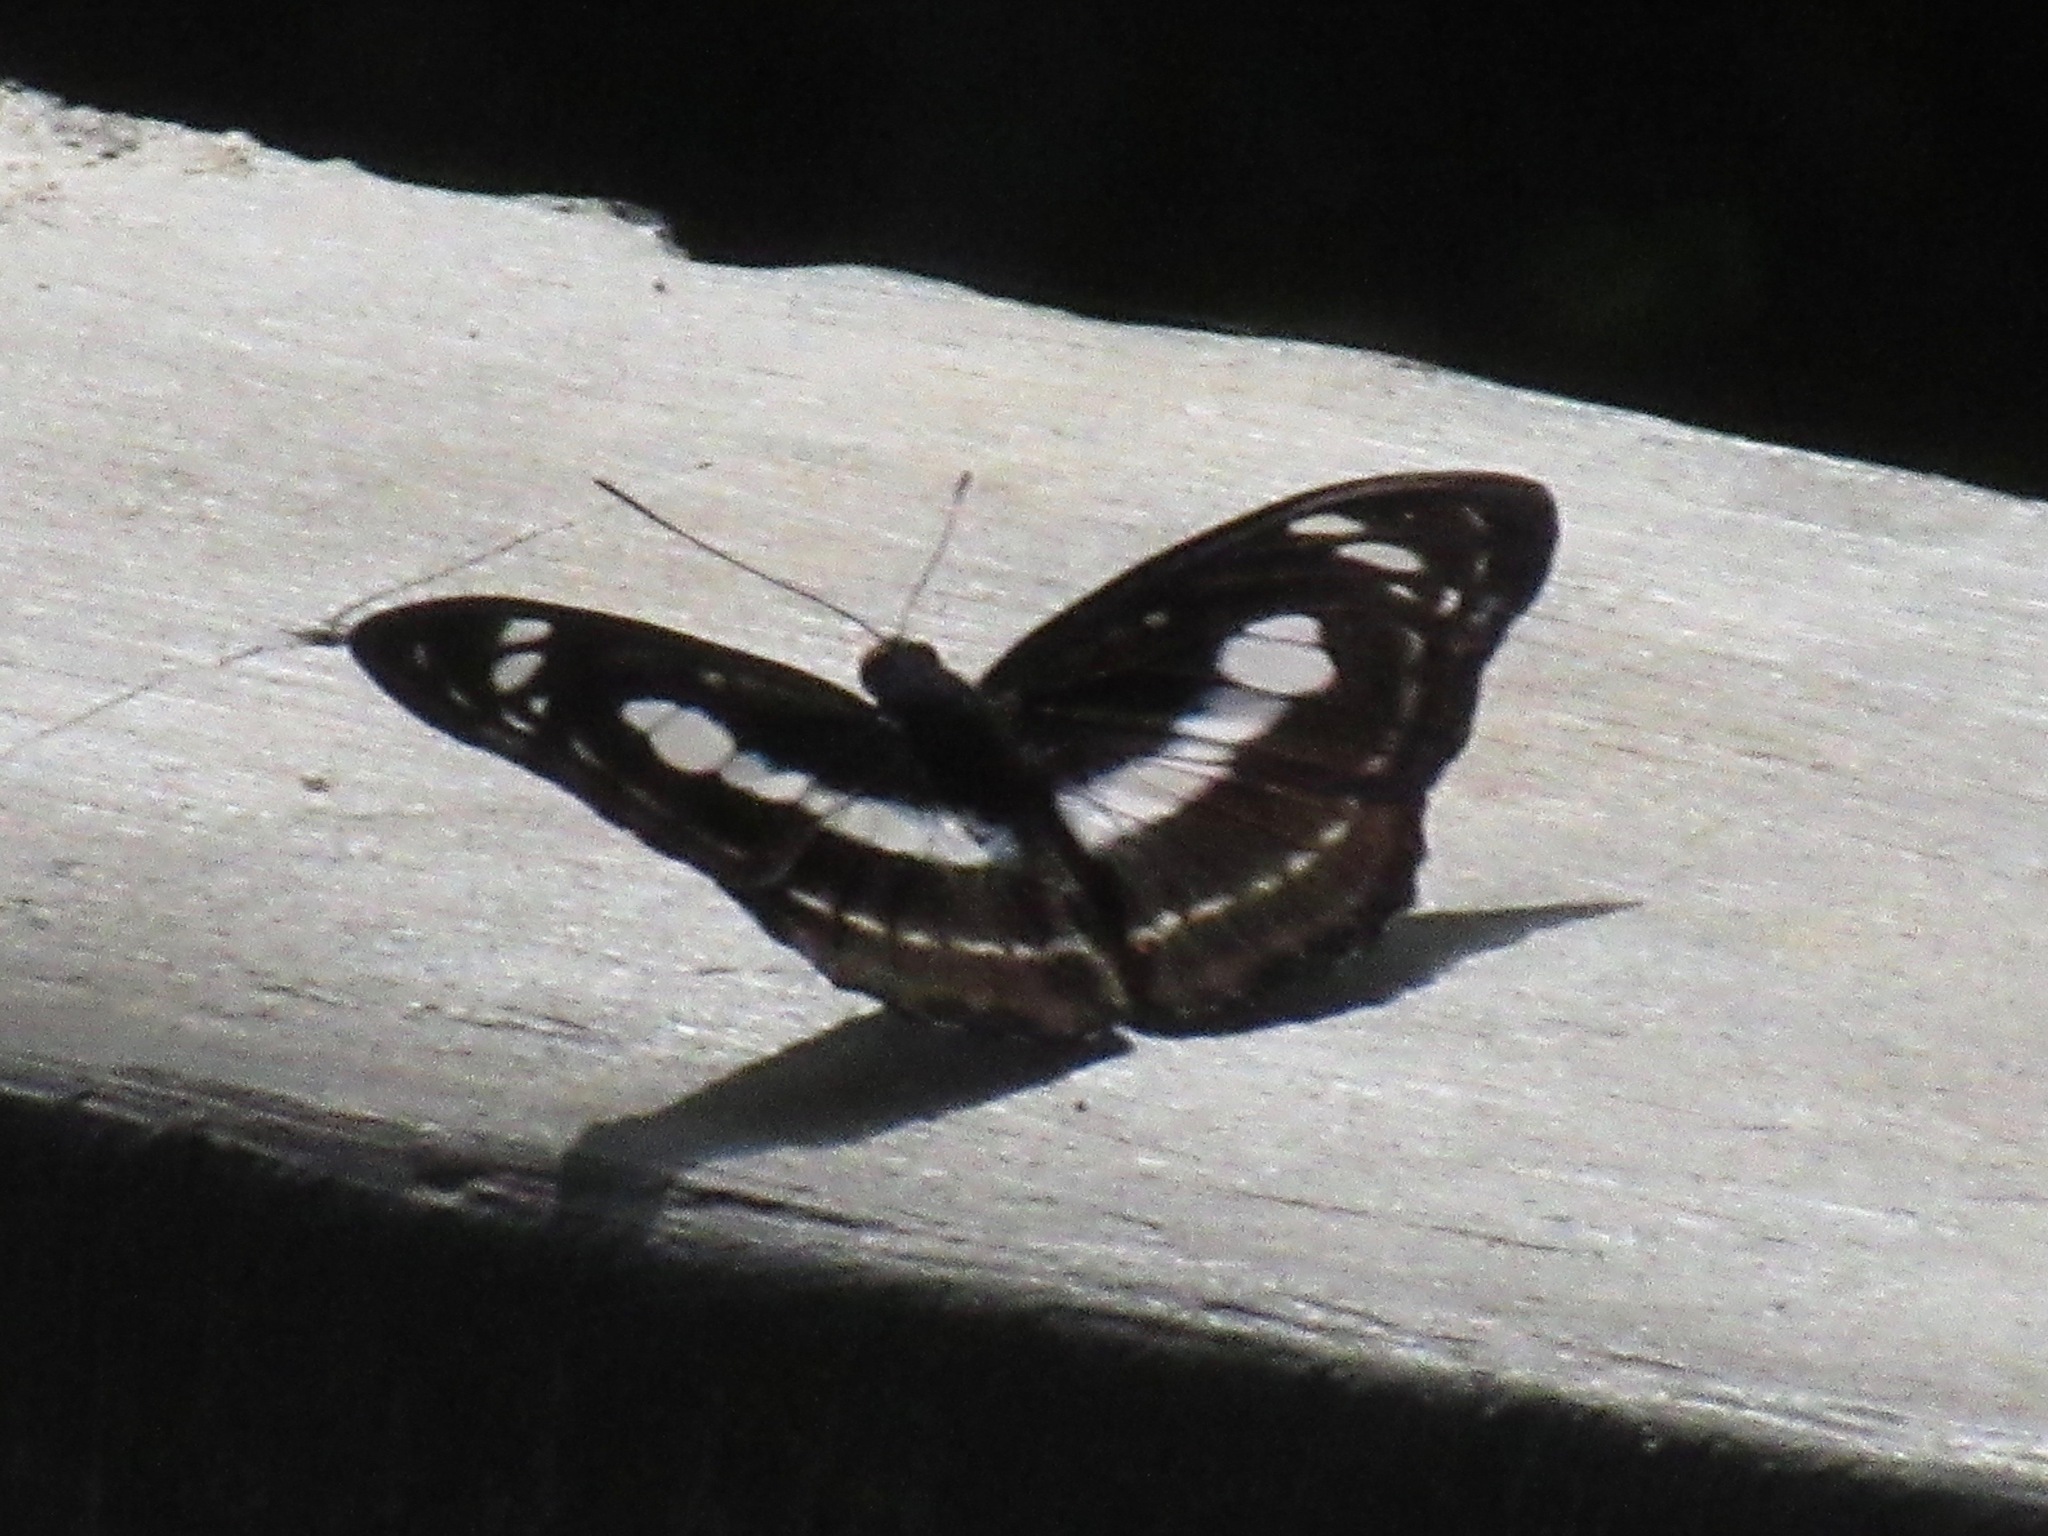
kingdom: Animalia
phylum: Arthropoda
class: Insecta
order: Lepidoptera
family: Nymphalidae
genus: Parathyma
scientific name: Parathyma selenophora
